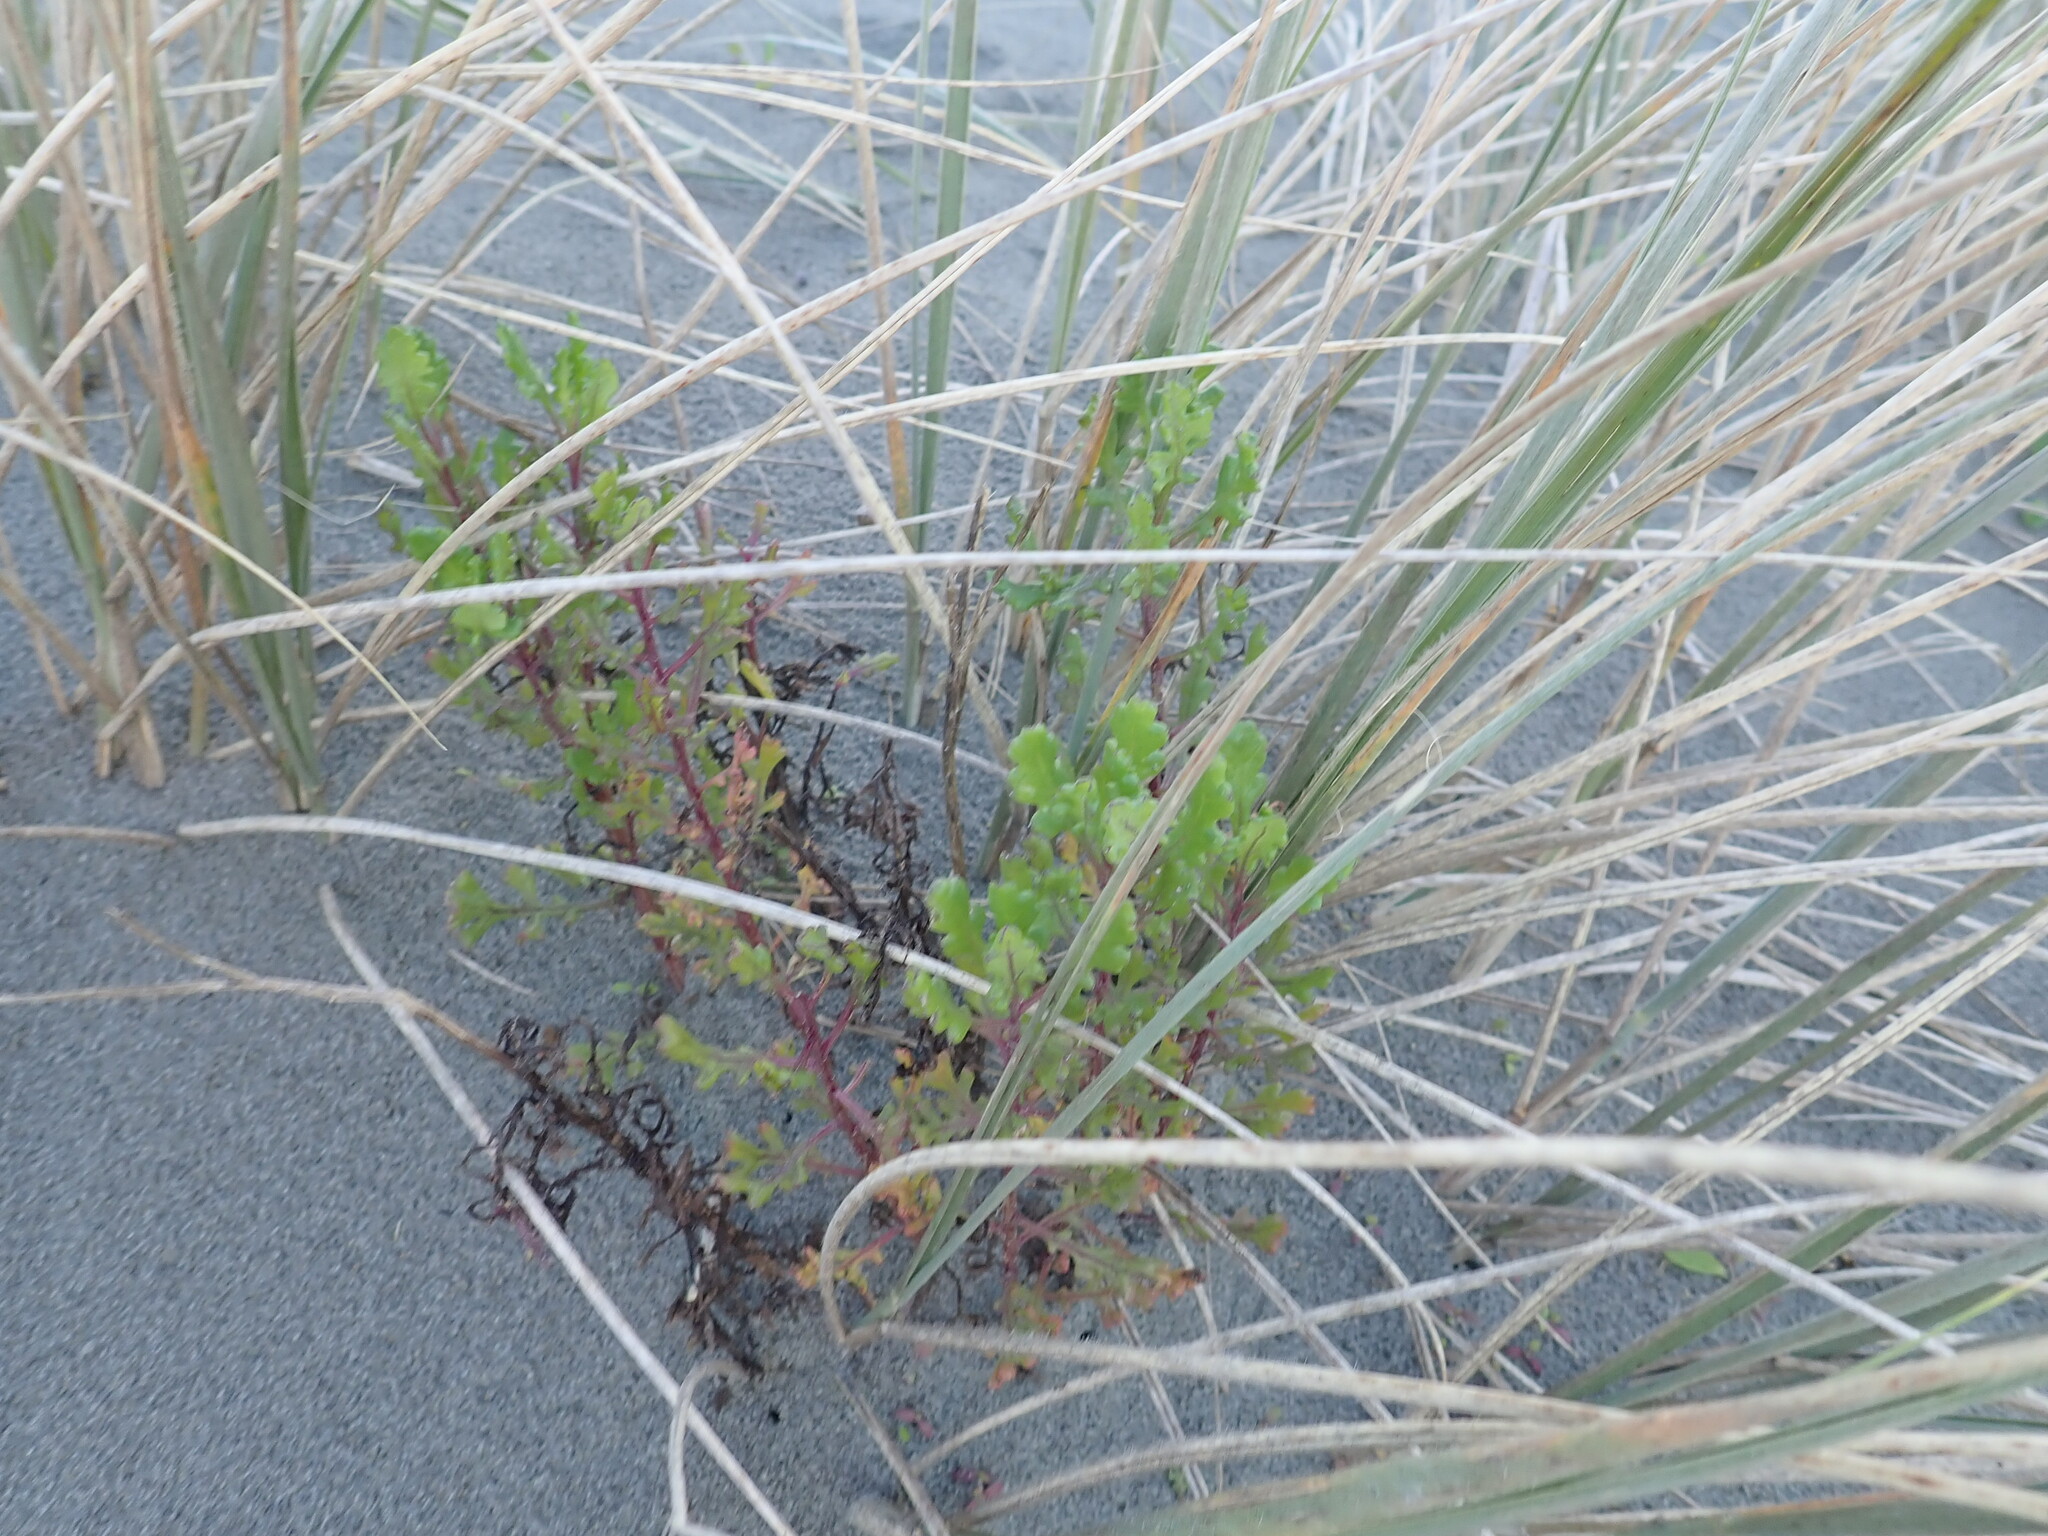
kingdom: Plantae
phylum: Tracheophyta
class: Magnoliopsida
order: Asterales
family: Asteraceae
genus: Senecio
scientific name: Senecio elegans
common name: Purple groundsel
